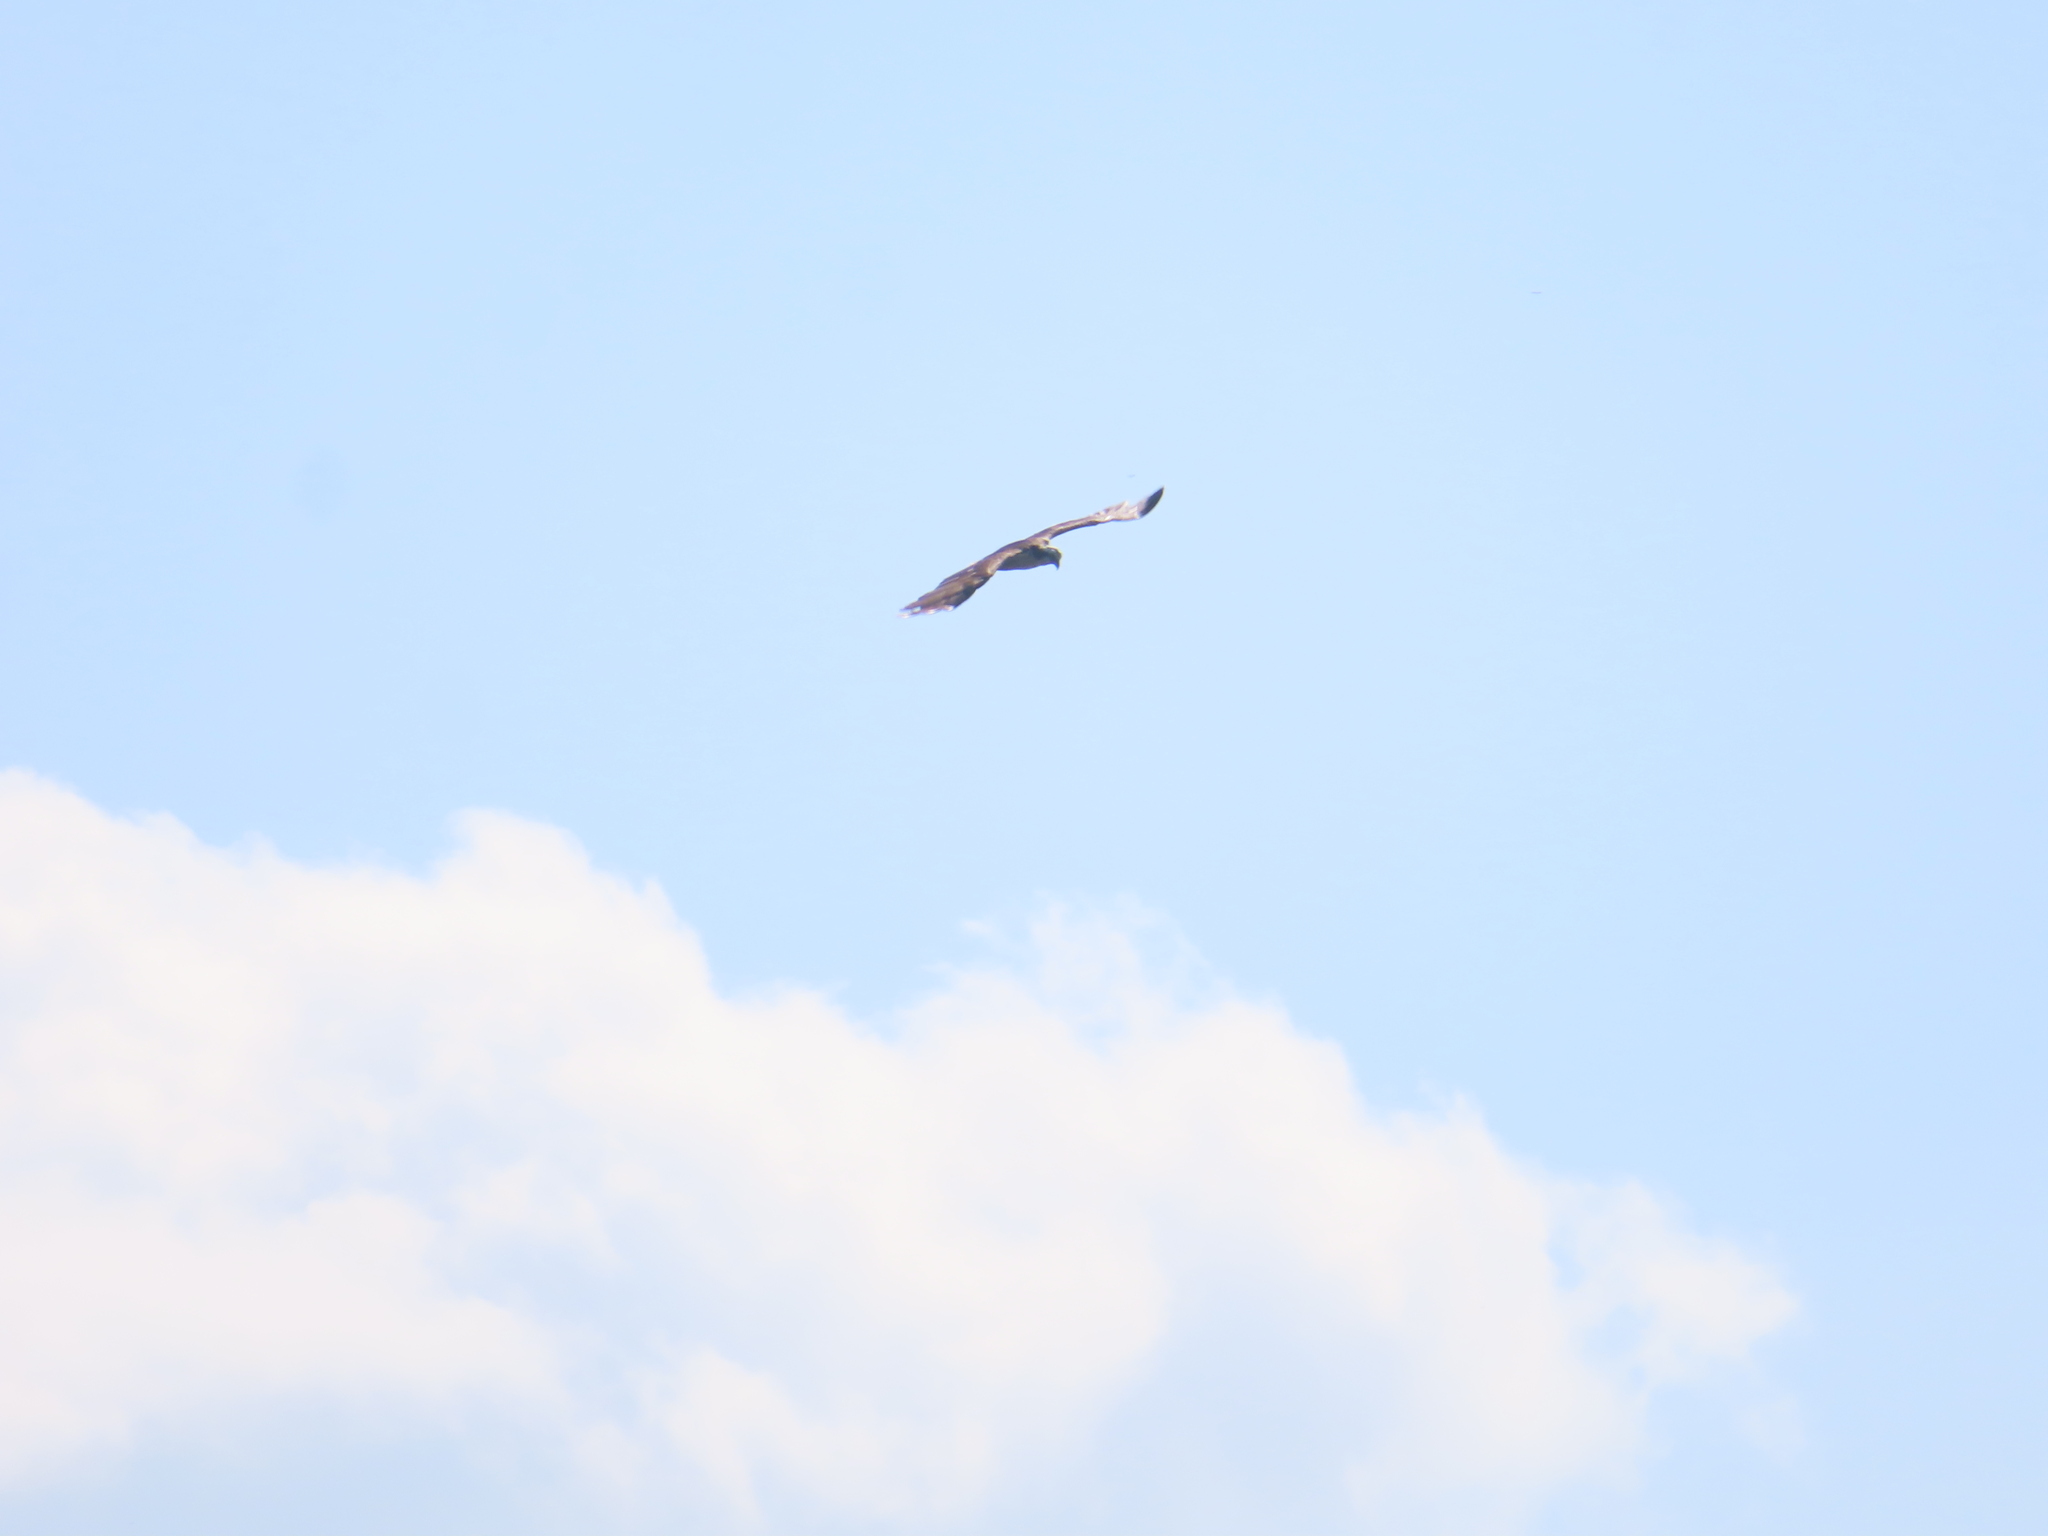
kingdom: Animalia
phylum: Chordata
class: Aves
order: Accipitriformes
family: Pandionidae
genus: Pandion
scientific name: Pandion haliaetus
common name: Osprey
